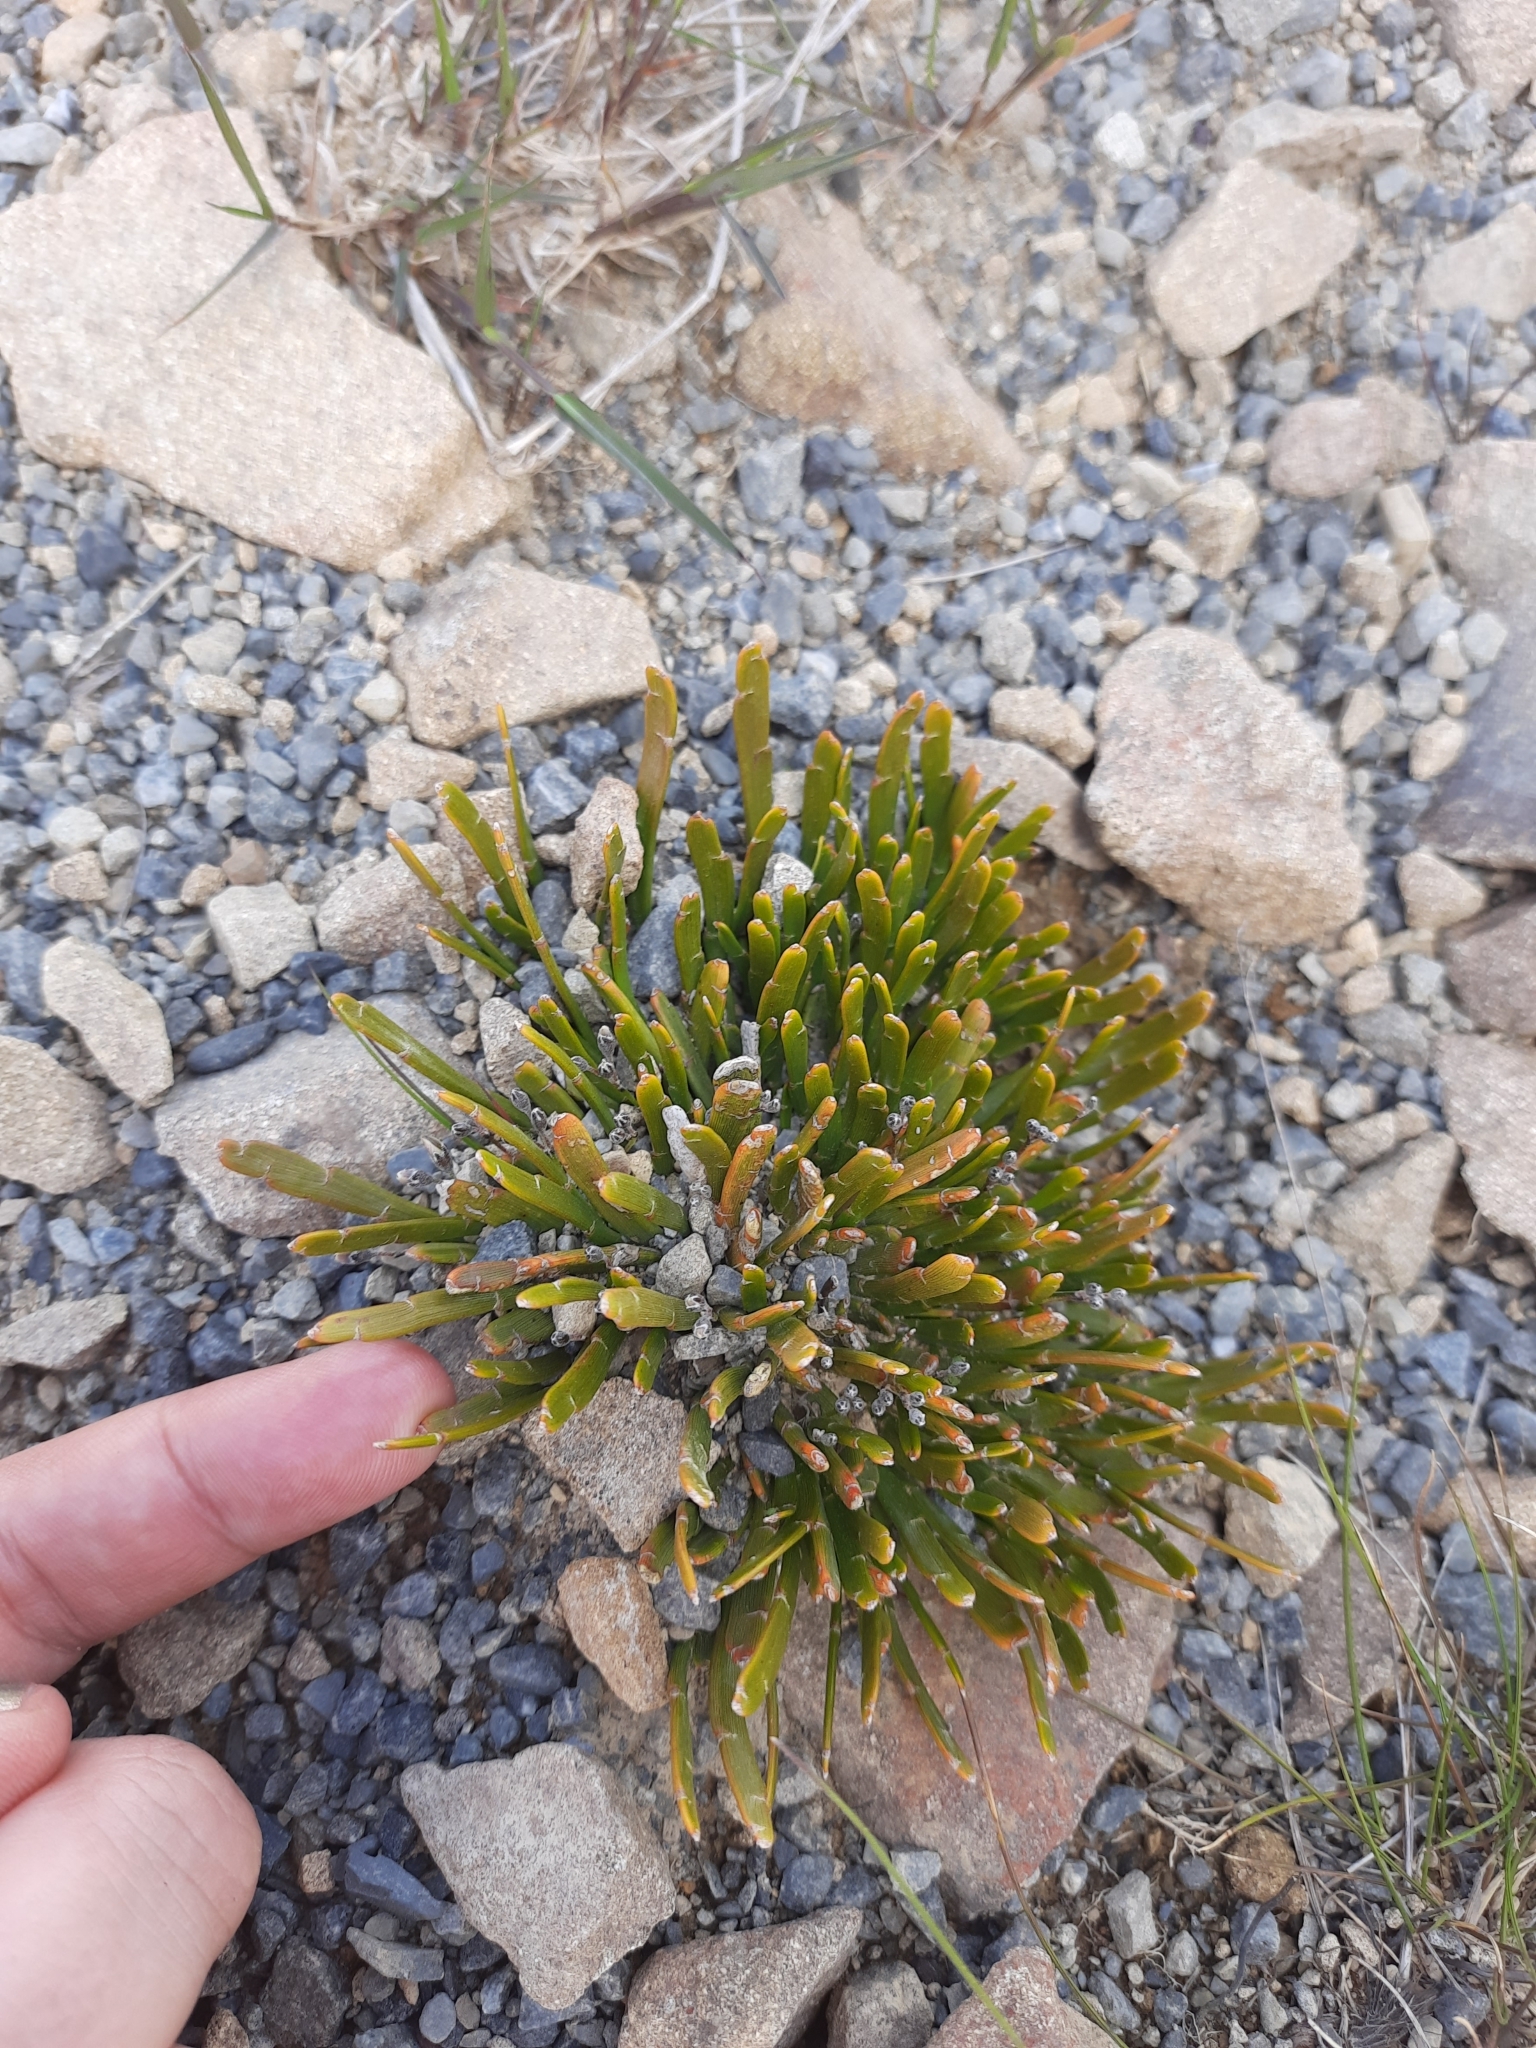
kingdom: Plantae
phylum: Tracheophyta
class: Magnoliopsida
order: Fabales
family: Fabaceae
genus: Carmichaelia
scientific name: Carmichaelia monroi
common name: Stout dwarf broom
